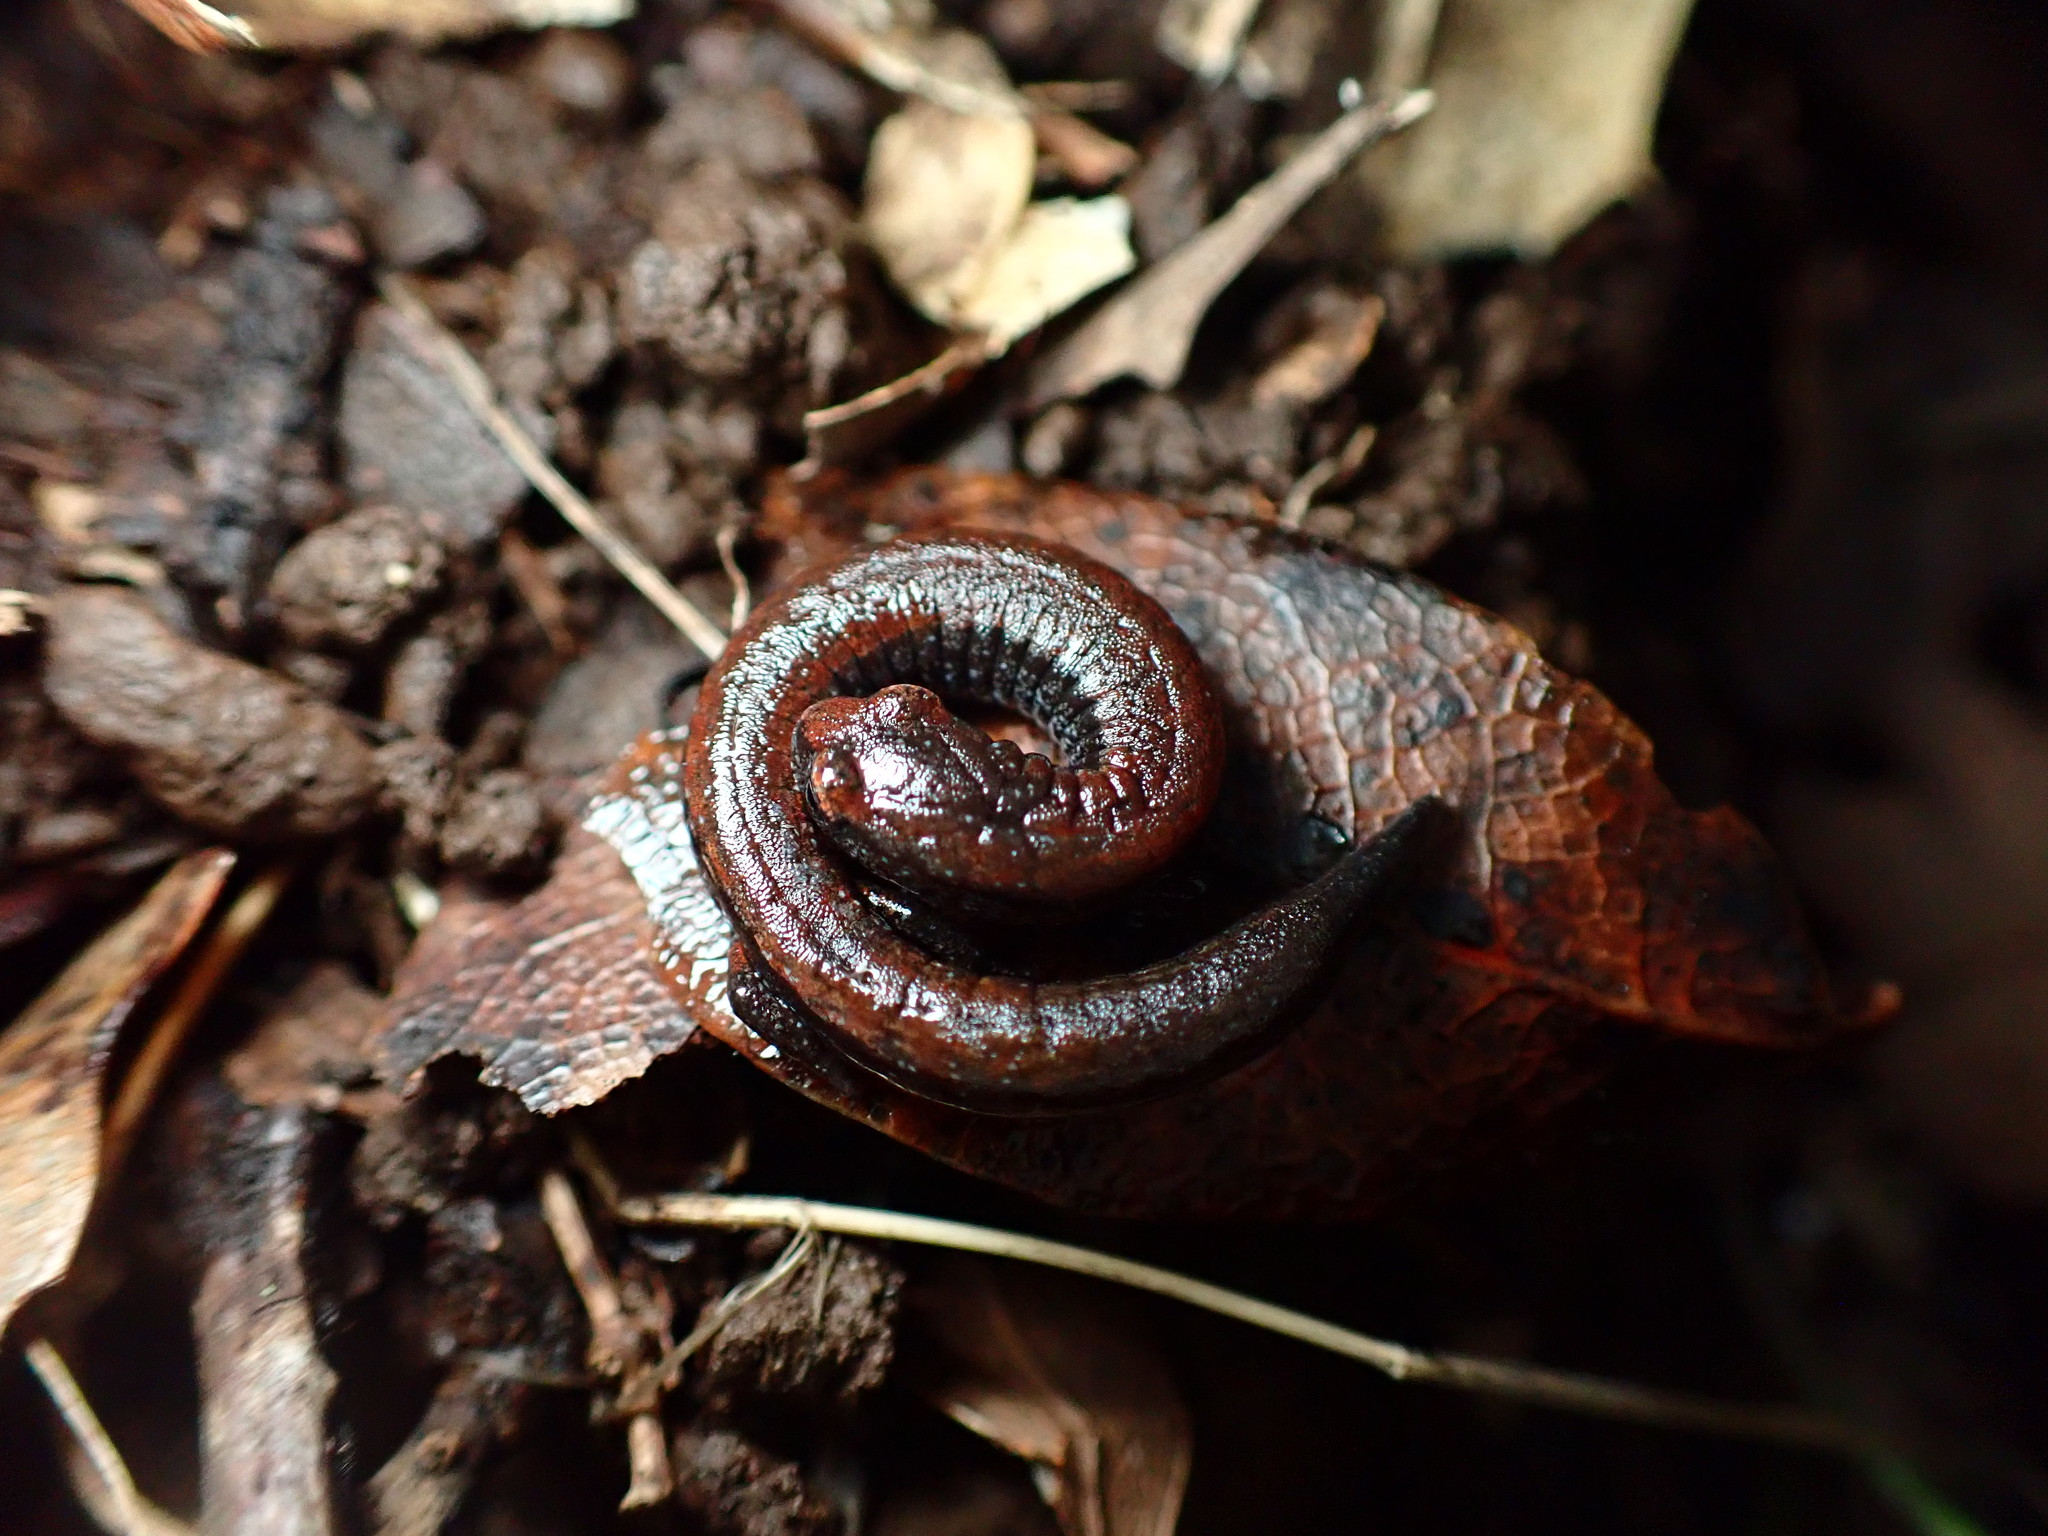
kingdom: Animalia
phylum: Chordata
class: Amphibia
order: Caudata
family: Plethodontidae
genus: Batrachoseps
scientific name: Batrachoseps attenuatus
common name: California slender salamander
